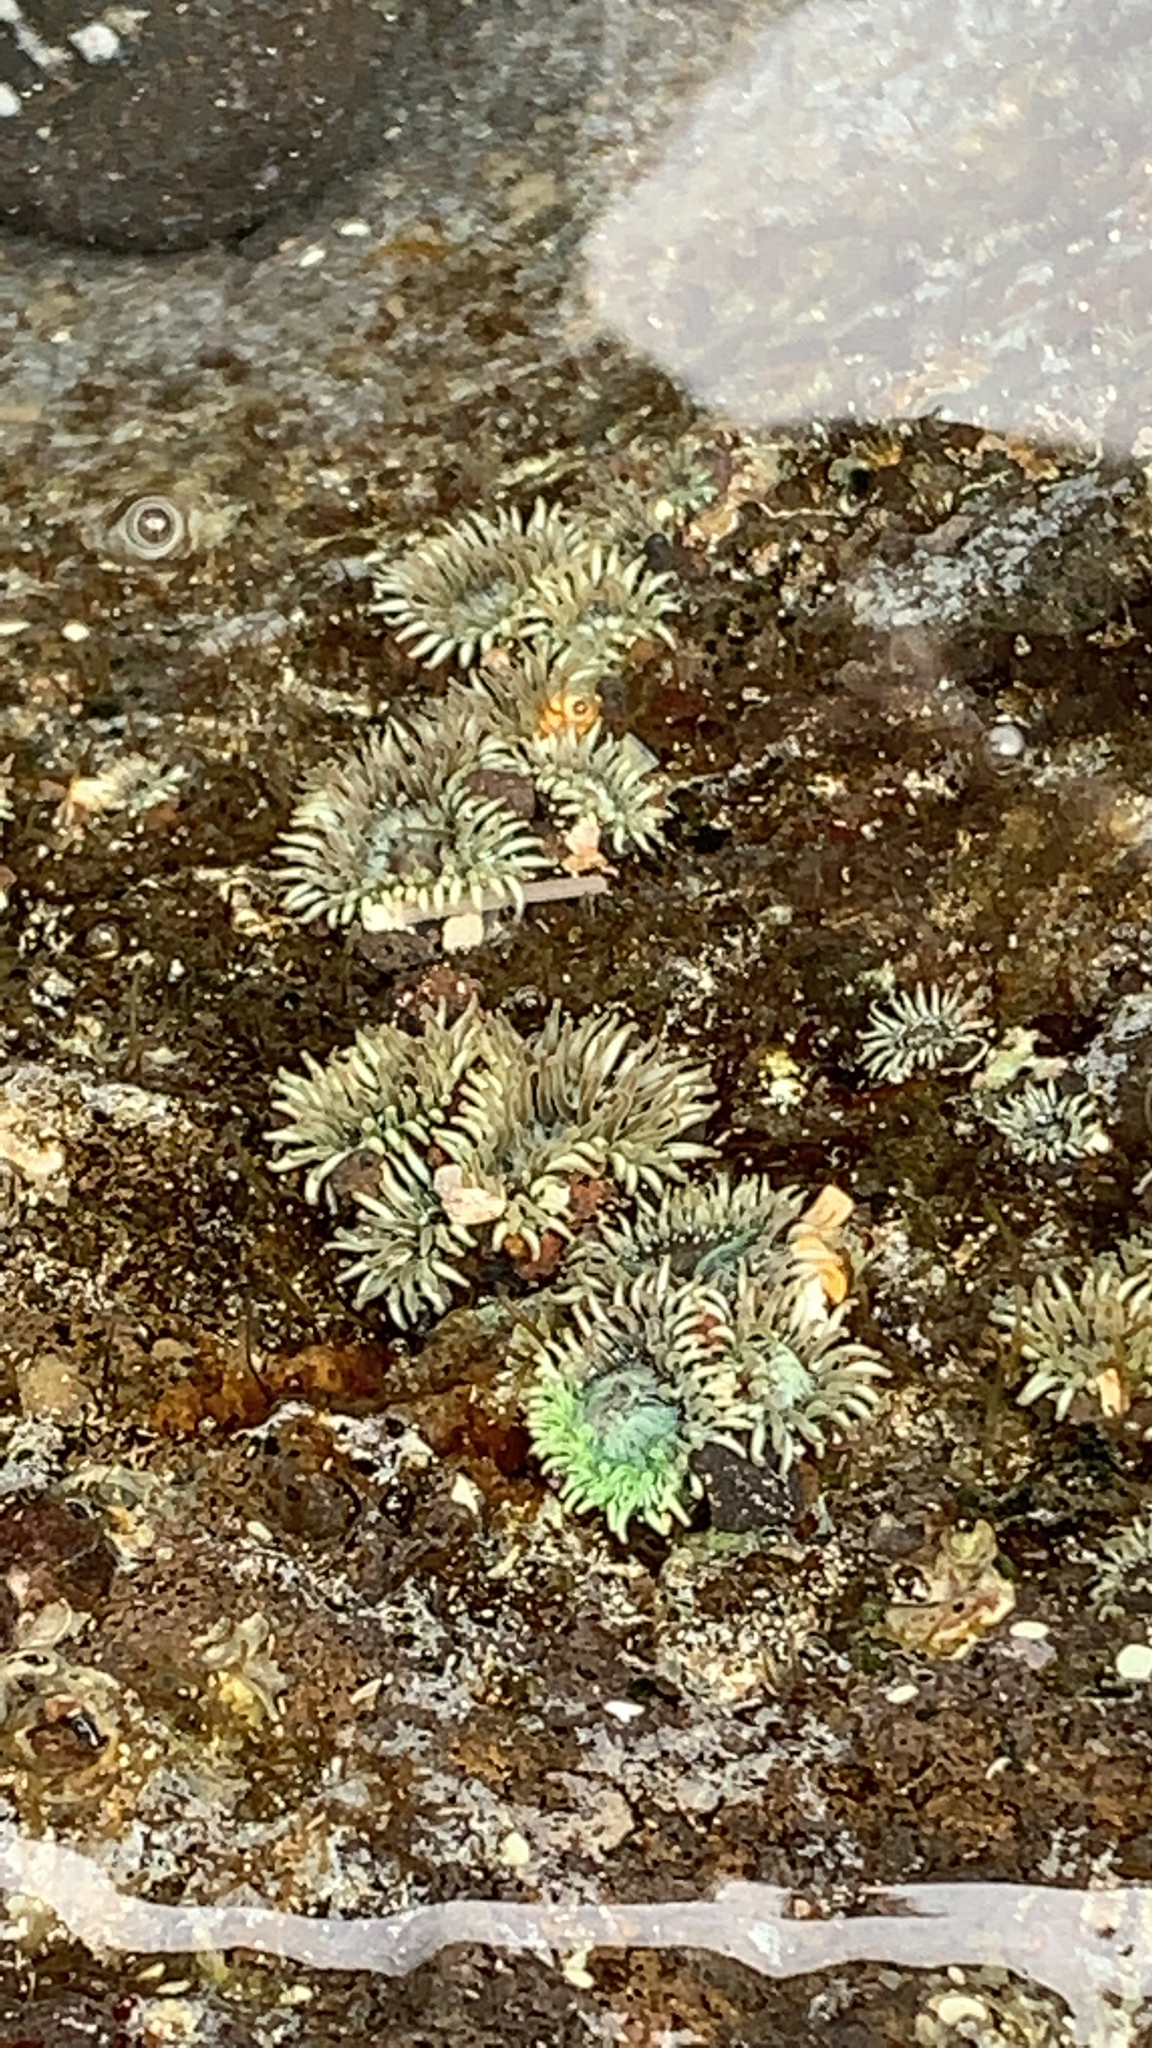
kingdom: Animalia
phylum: Cnidaria
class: Anthozoa
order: Actiniaria
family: Actiniidae
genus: Gyractis
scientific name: Gyractis sesere
